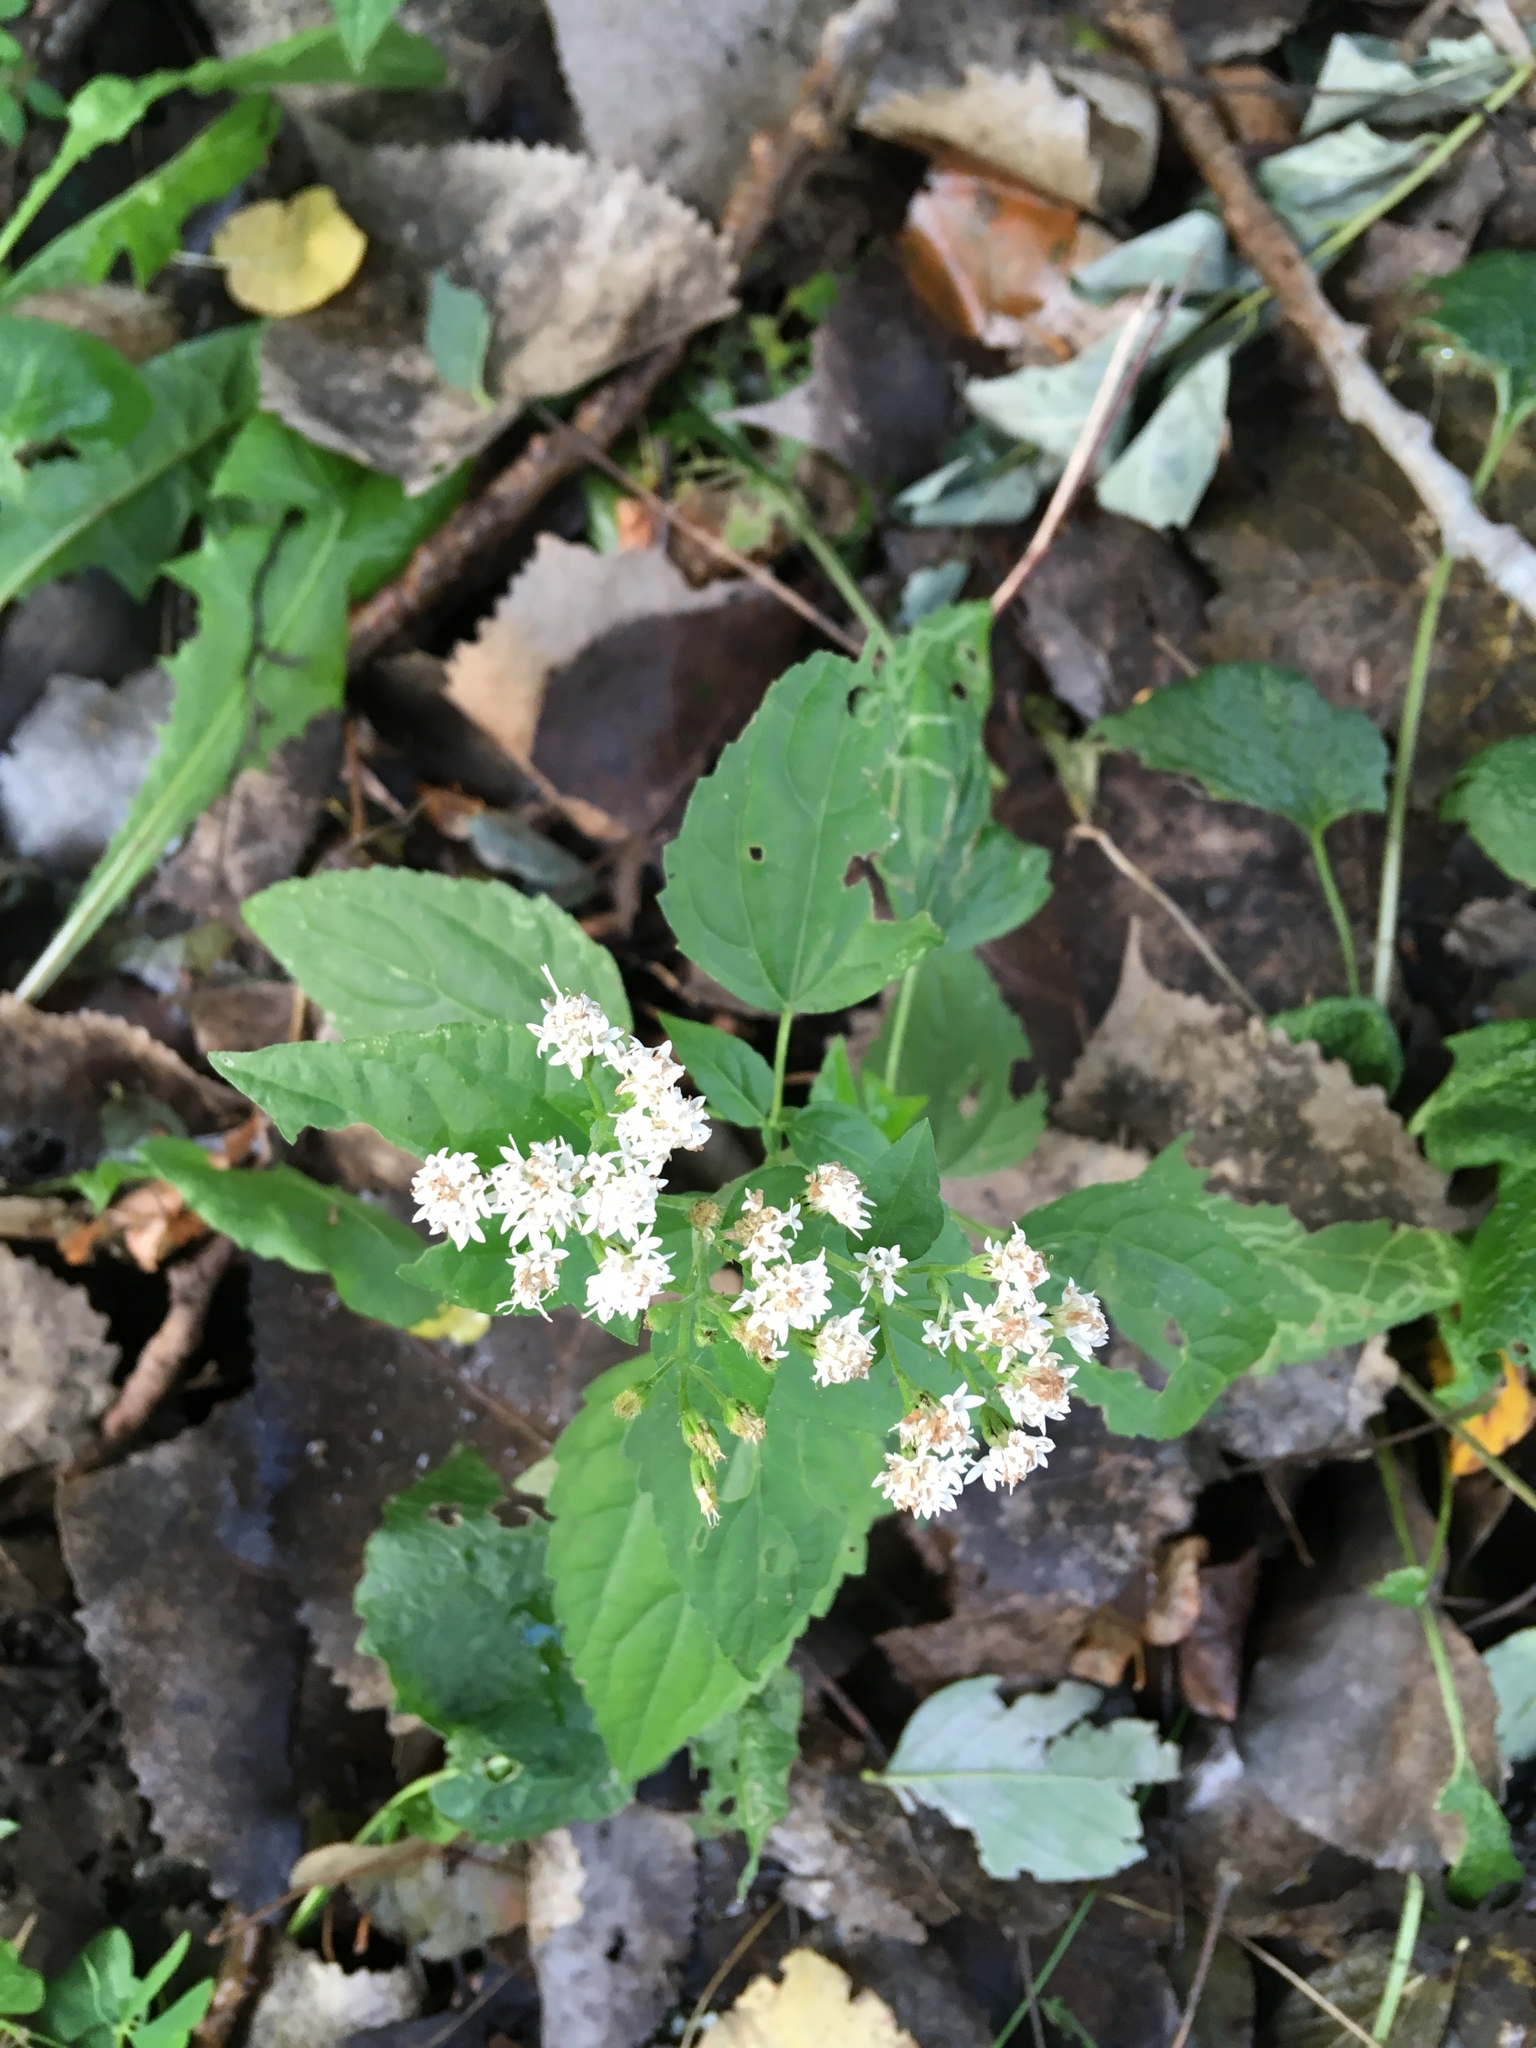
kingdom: Plantae
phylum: Tracheophyta
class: Magnoliopsida
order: Asterales
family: Asteraceae
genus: Ageratina
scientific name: Ageratina altissima
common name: White snakeroot
